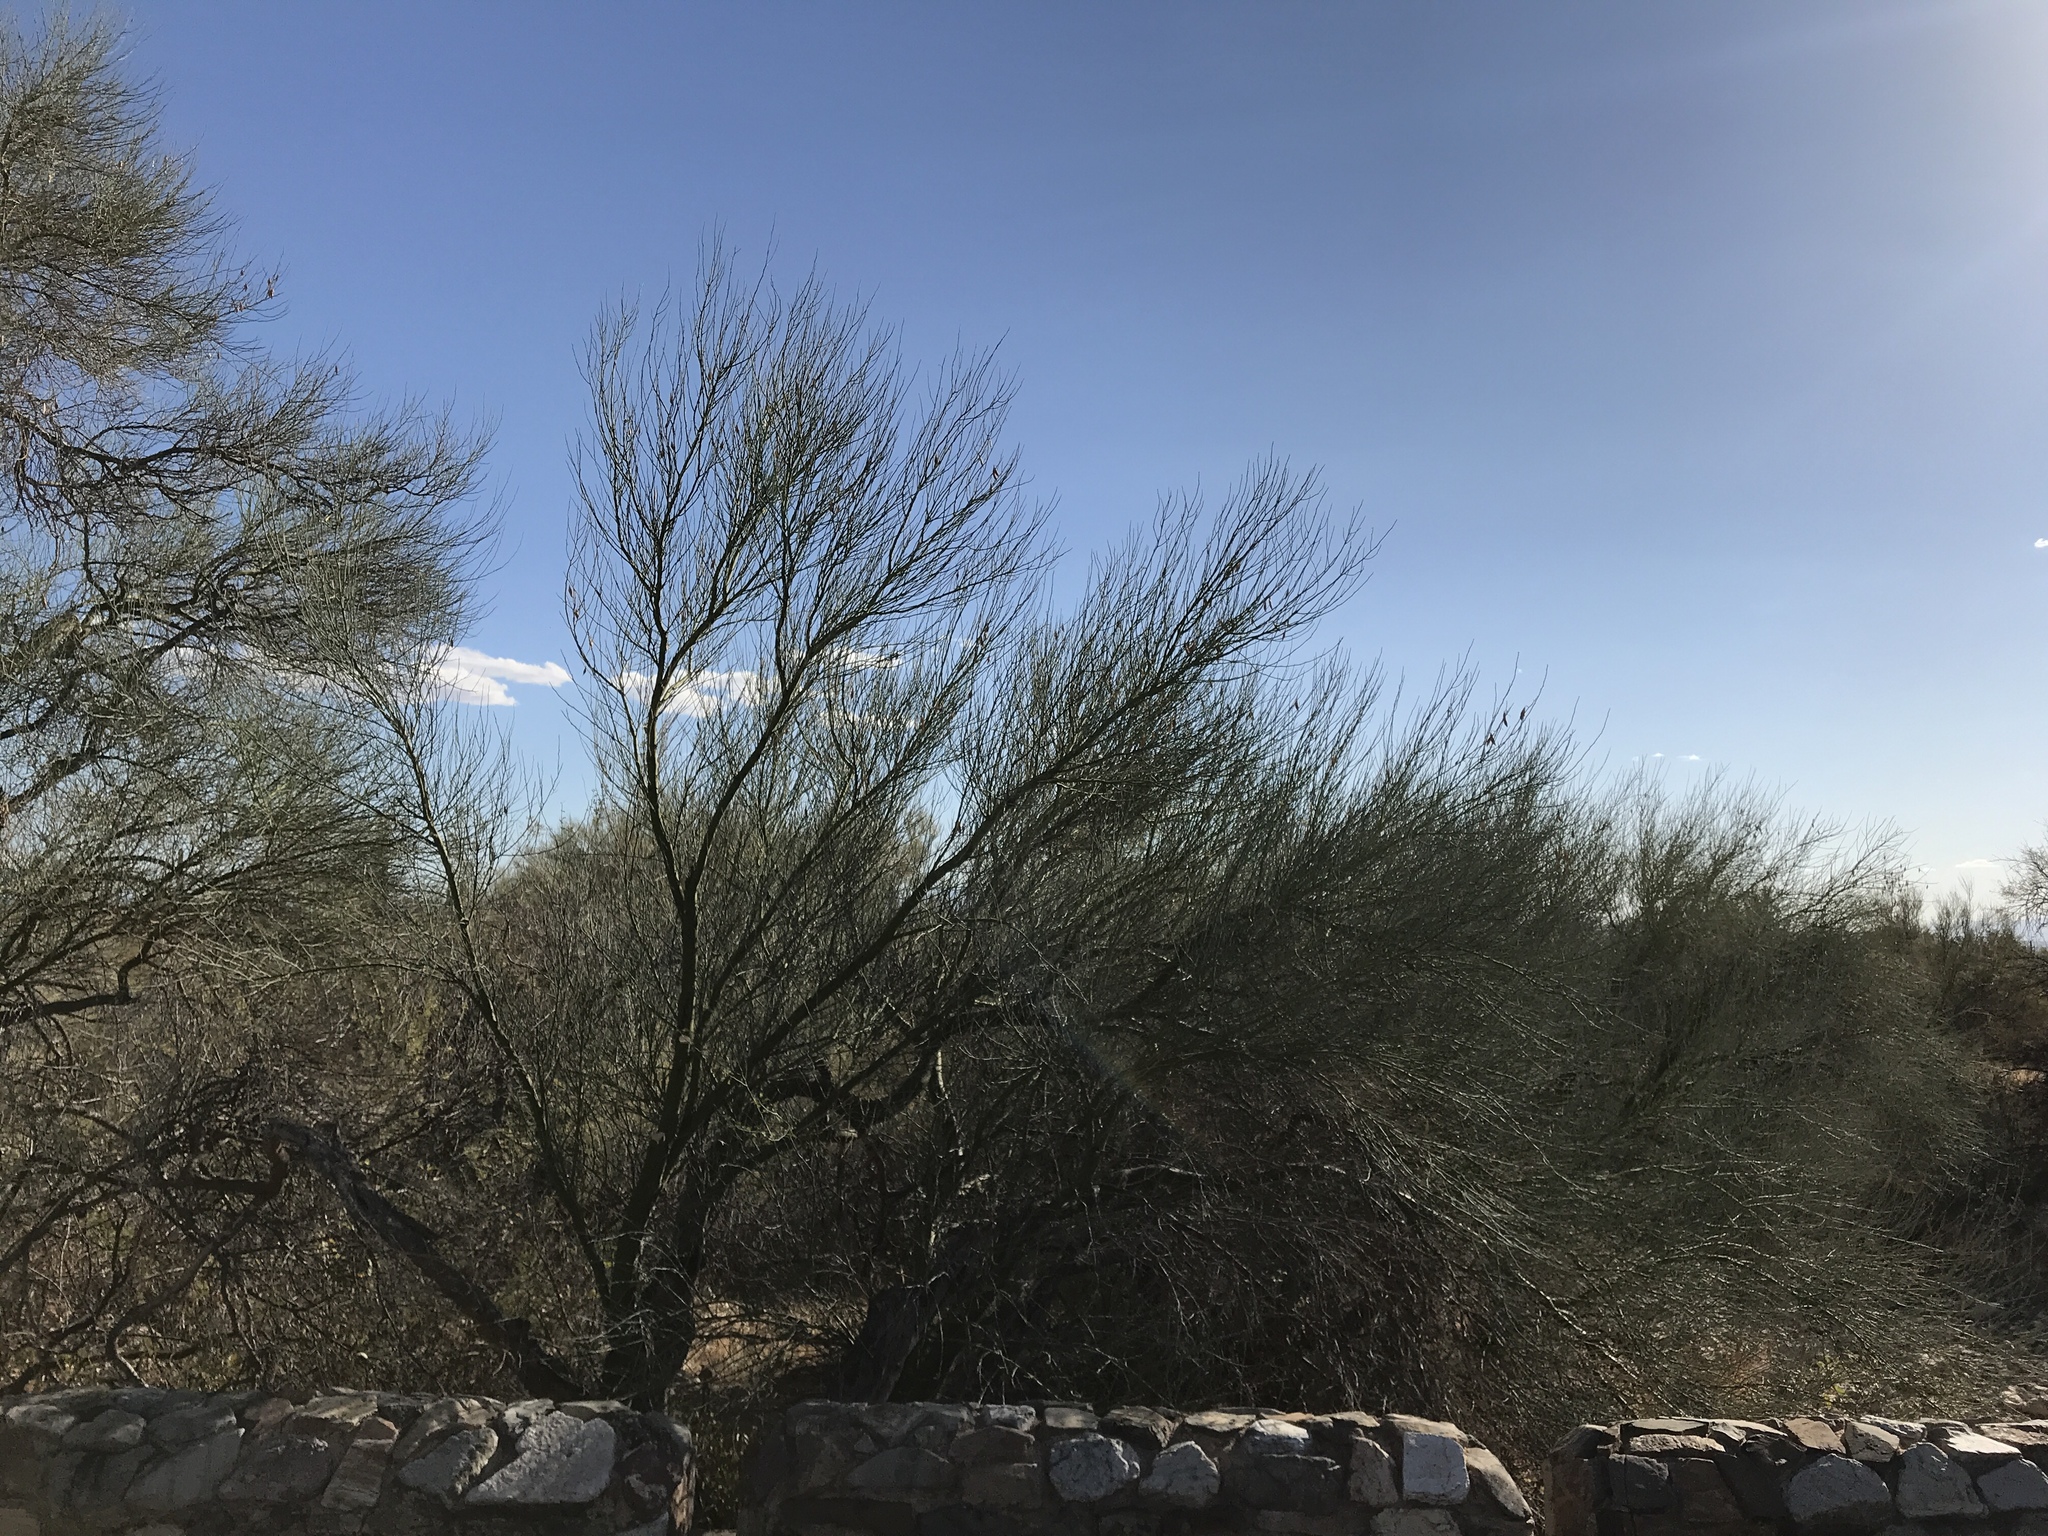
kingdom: Plantae
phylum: Tracheophyta
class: Magnoliopsida
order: Fabales
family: Fabaceae
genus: Parkinsonia
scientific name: Parkinsonia microphylla
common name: Yellow paloverde
